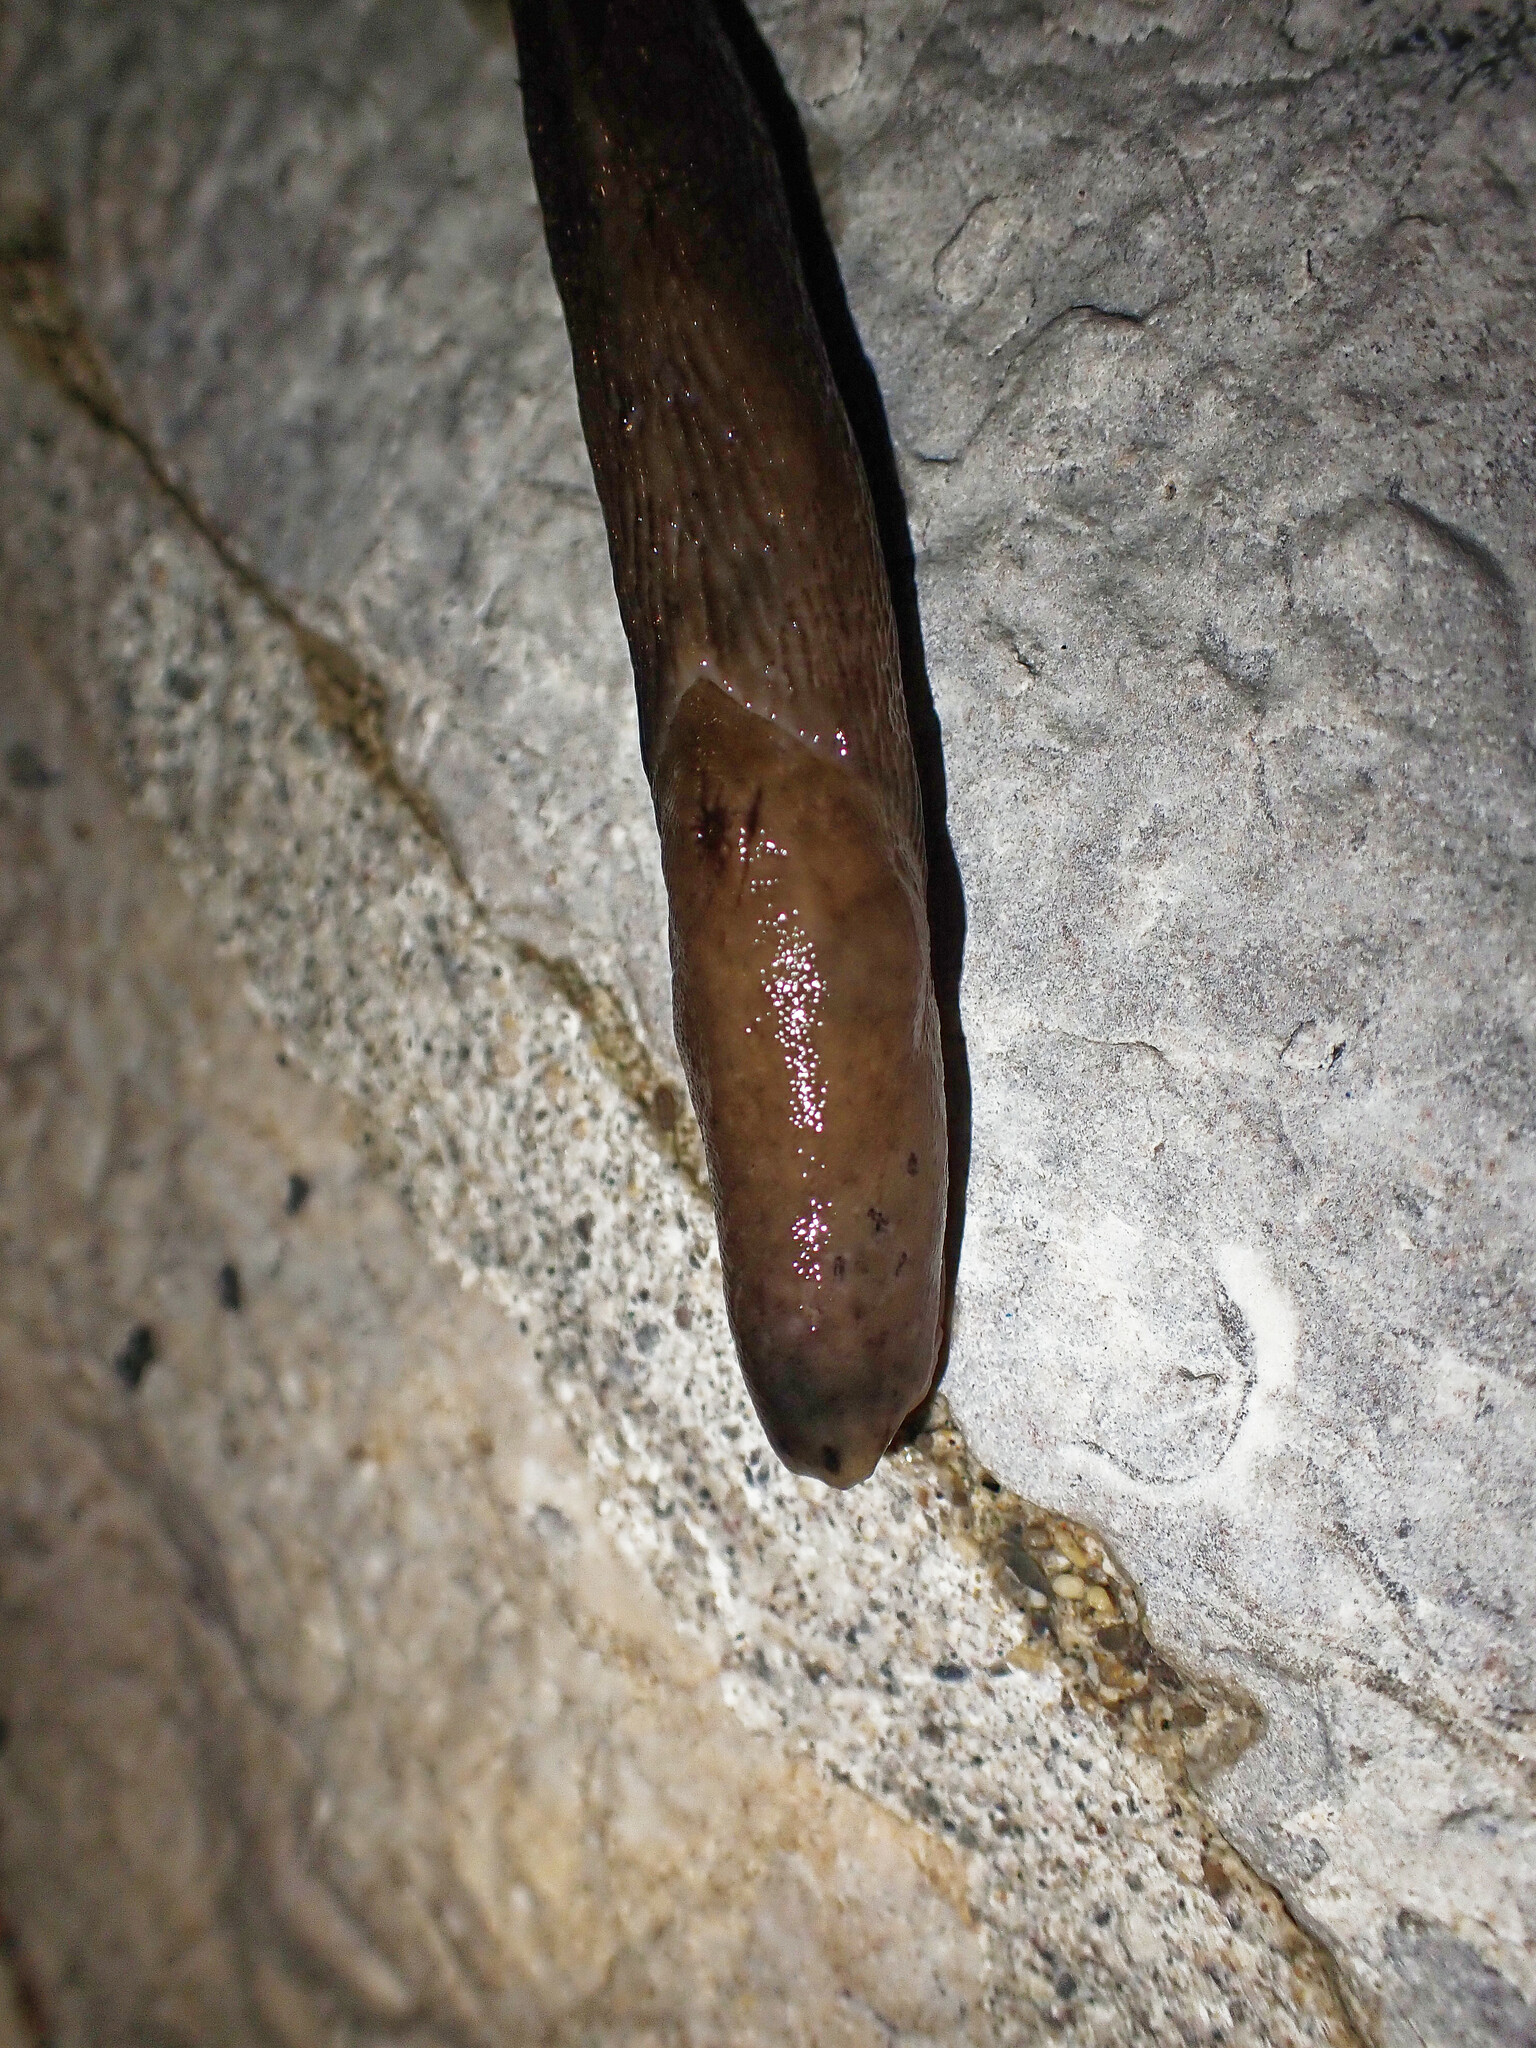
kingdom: Animalia
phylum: Mollusca
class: Gastropoda
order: Stylommatophora
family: Limacidae
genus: Limax
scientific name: Limax maximus
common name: Great grey slug
